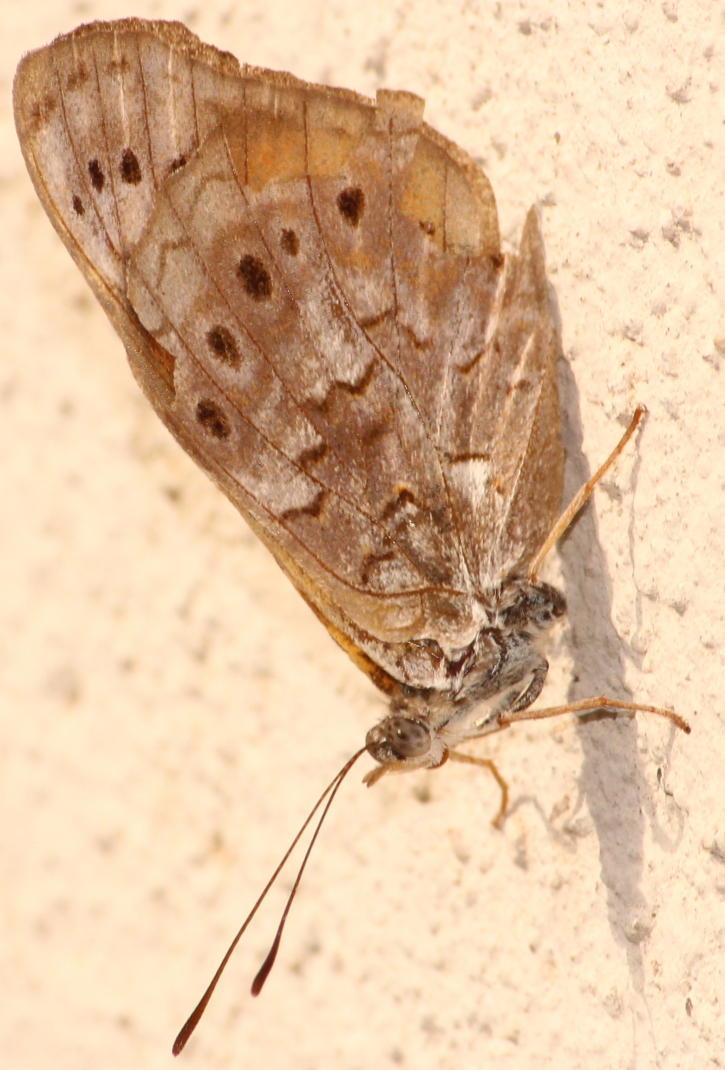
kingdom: Animalia
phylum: Arthropoda
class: Insecta
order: Lepidoptera
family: Nymphalidae
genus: Asterope
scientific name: Asterope boisduvali
